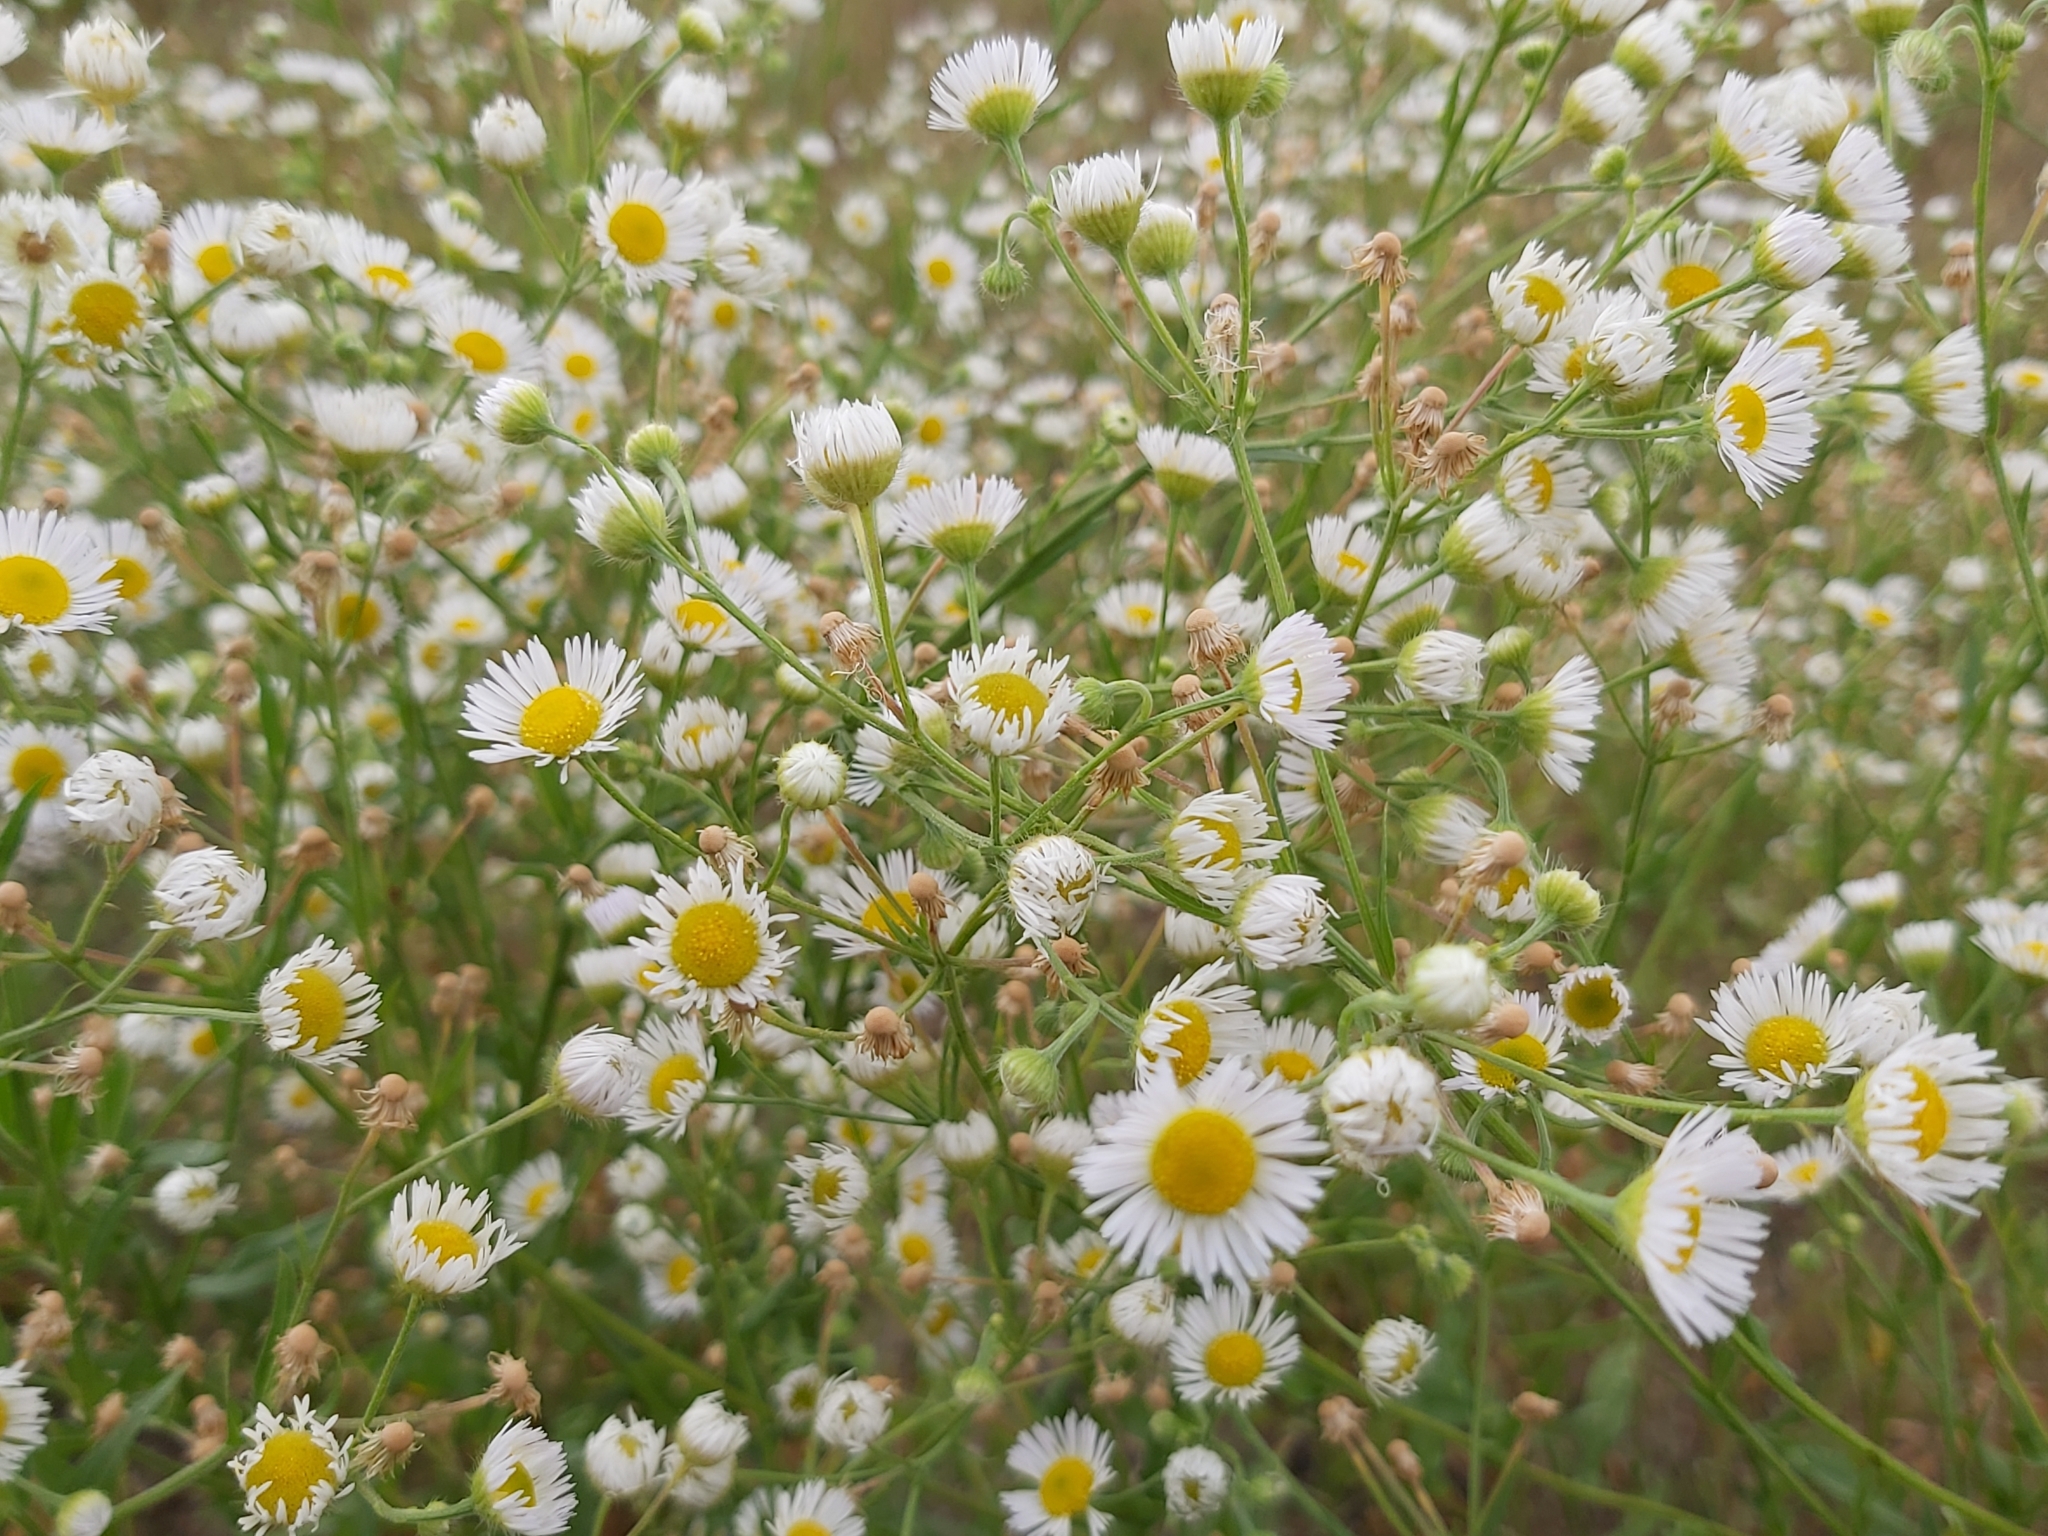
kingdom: Plantae
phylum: Tracheophyta
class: Magnoliopsida
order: Asterales
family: Asteraceae
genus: Erigeron
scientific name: Erigeron annuus
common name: Tall fleabane
